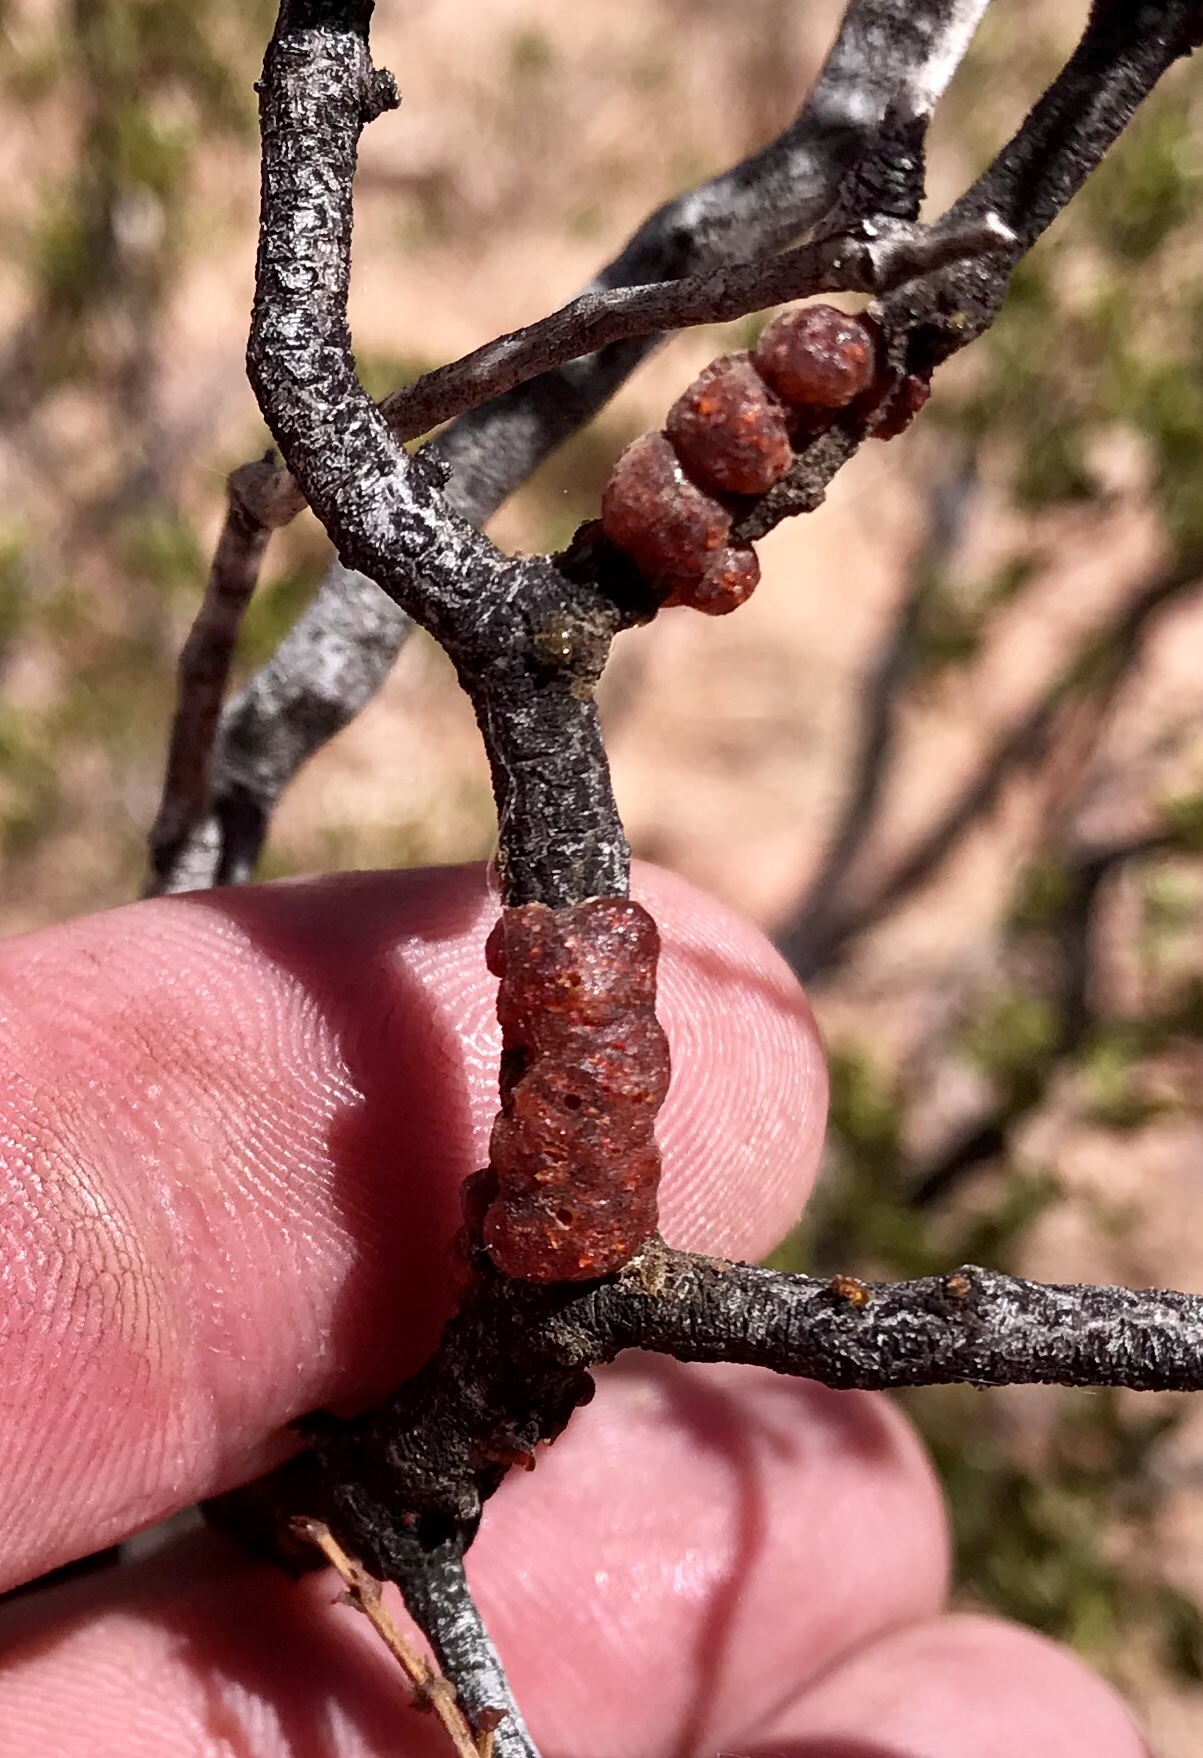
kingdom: Animalia
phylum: Arthropoda
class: Insecta
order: Hemiptera
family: Kerriidae
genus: Tachardiella
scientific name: Tachardiella larreae
